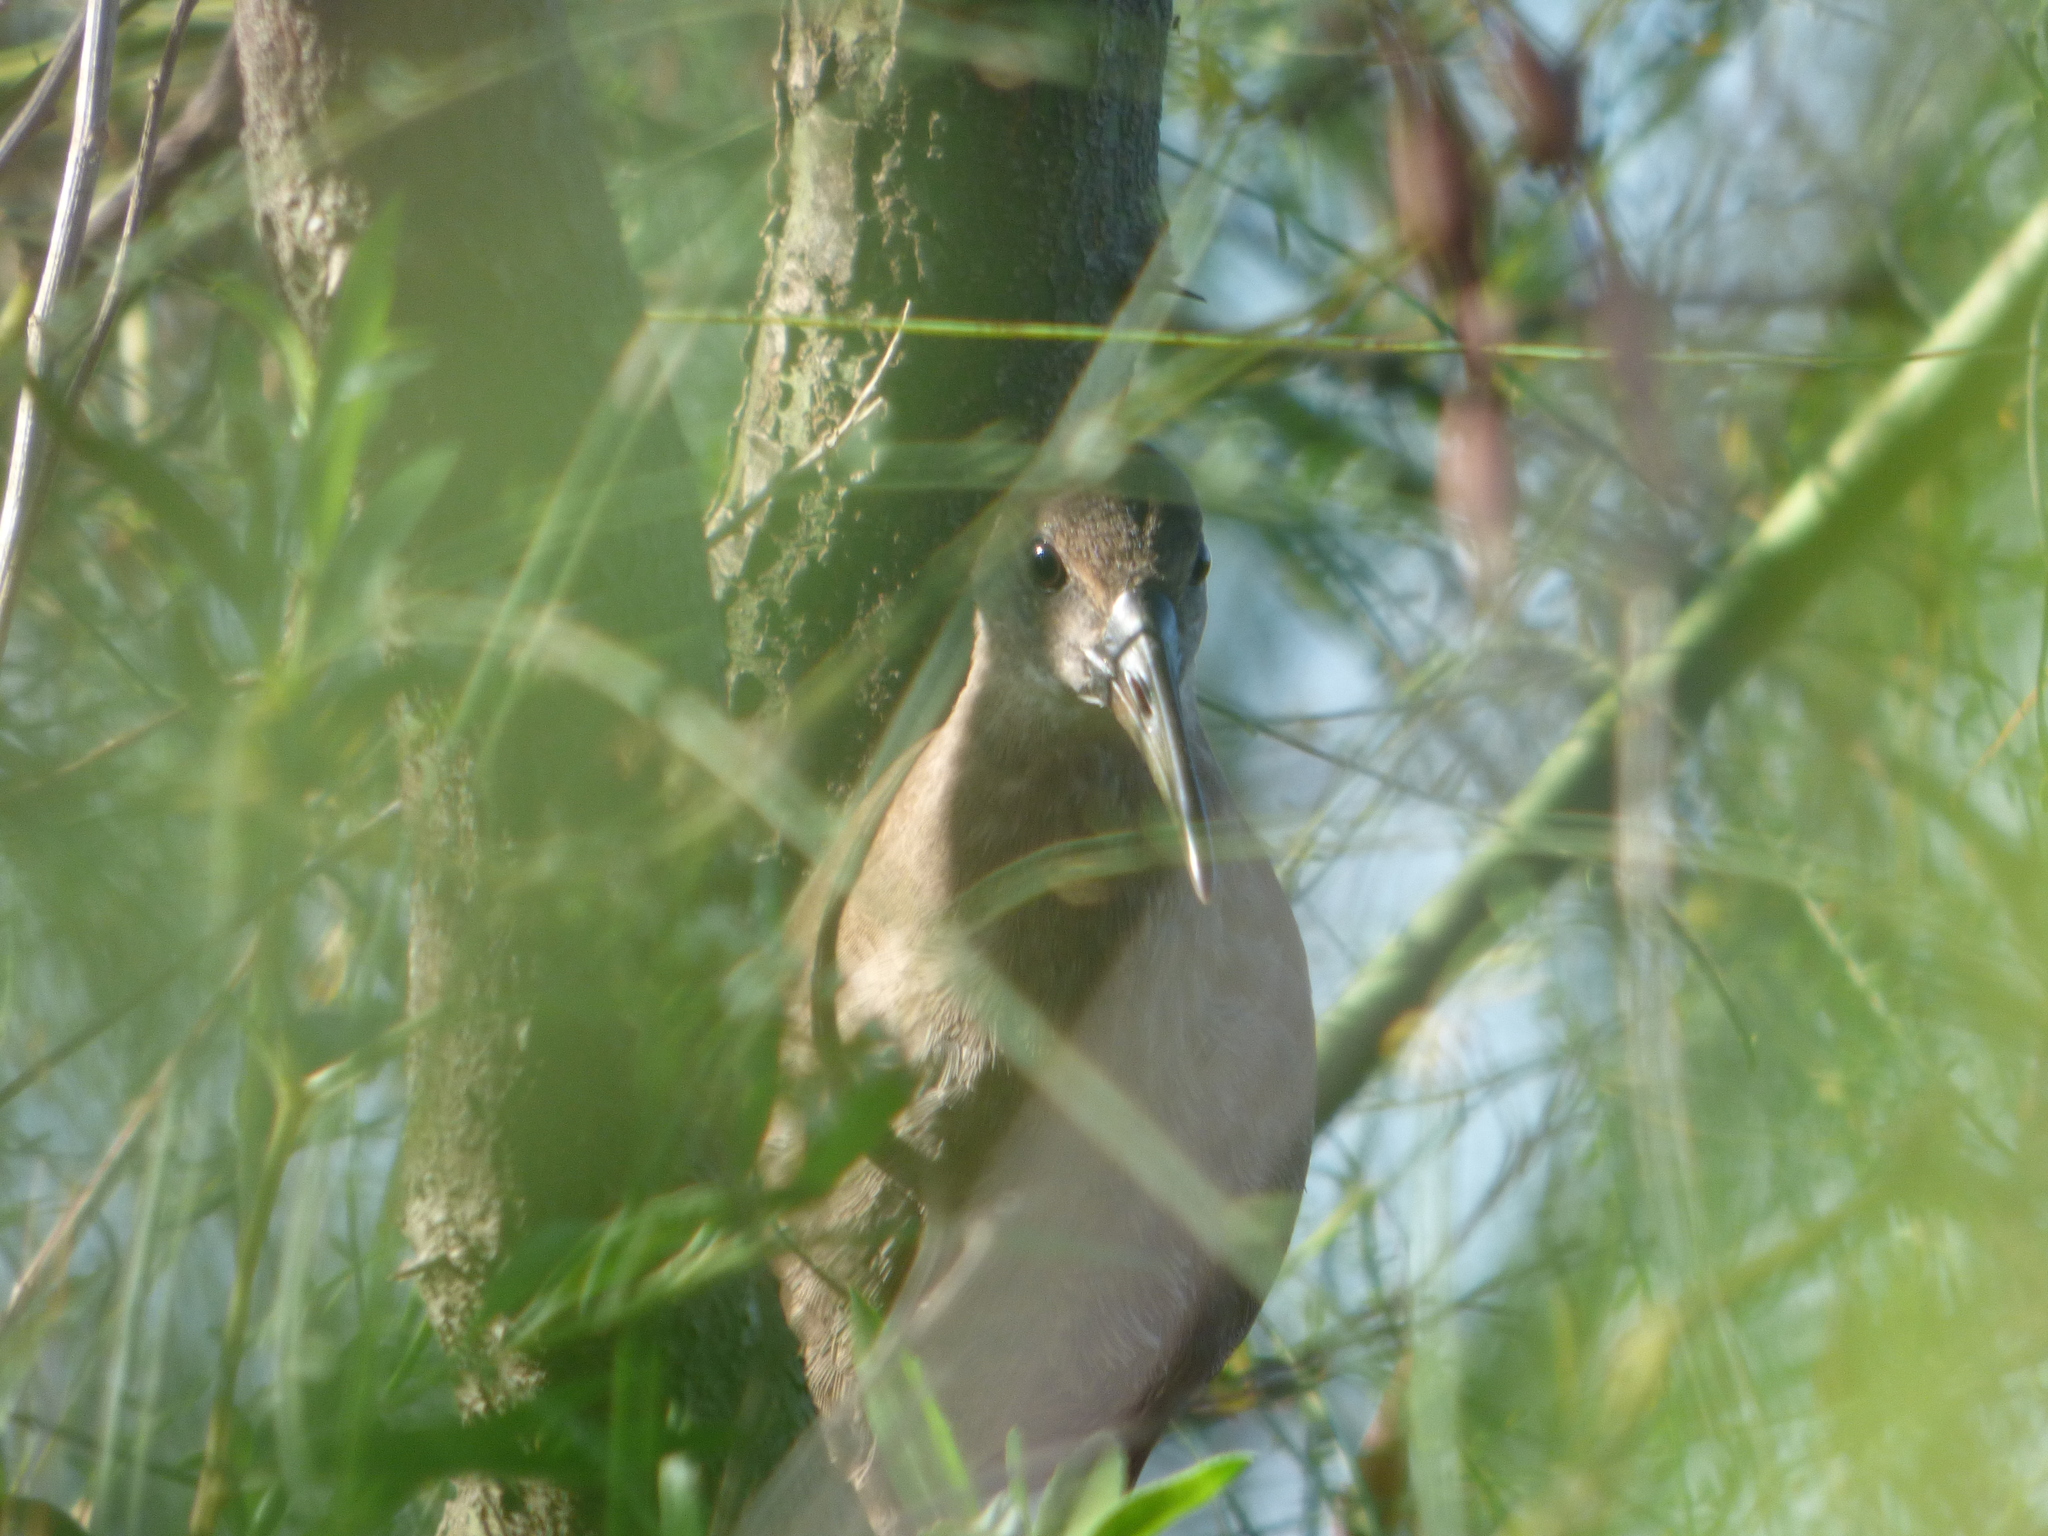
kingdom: Animalia
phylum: Chordata
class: Aves
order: Gruiformes
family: Rallidae
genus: Pardirallus
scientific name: Pardirallus sanguinolentus
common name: Plumbeous rail
